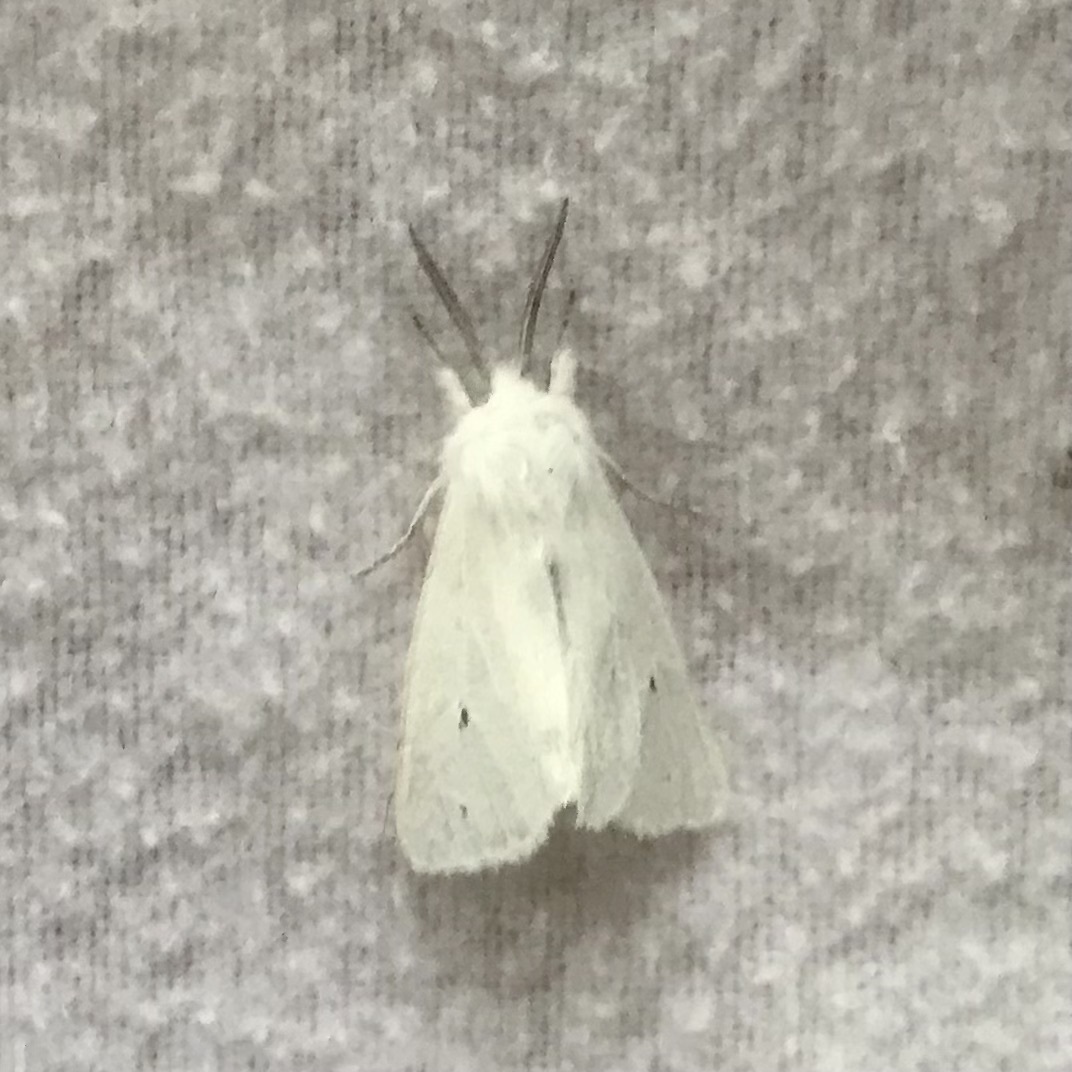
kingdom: Animalia
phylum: Arthropoda
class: Insecta
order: Lepidoptera
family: Erebidae
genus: Spilosoma
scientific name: Spilosoma virginica
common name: Virginia tiger moth
